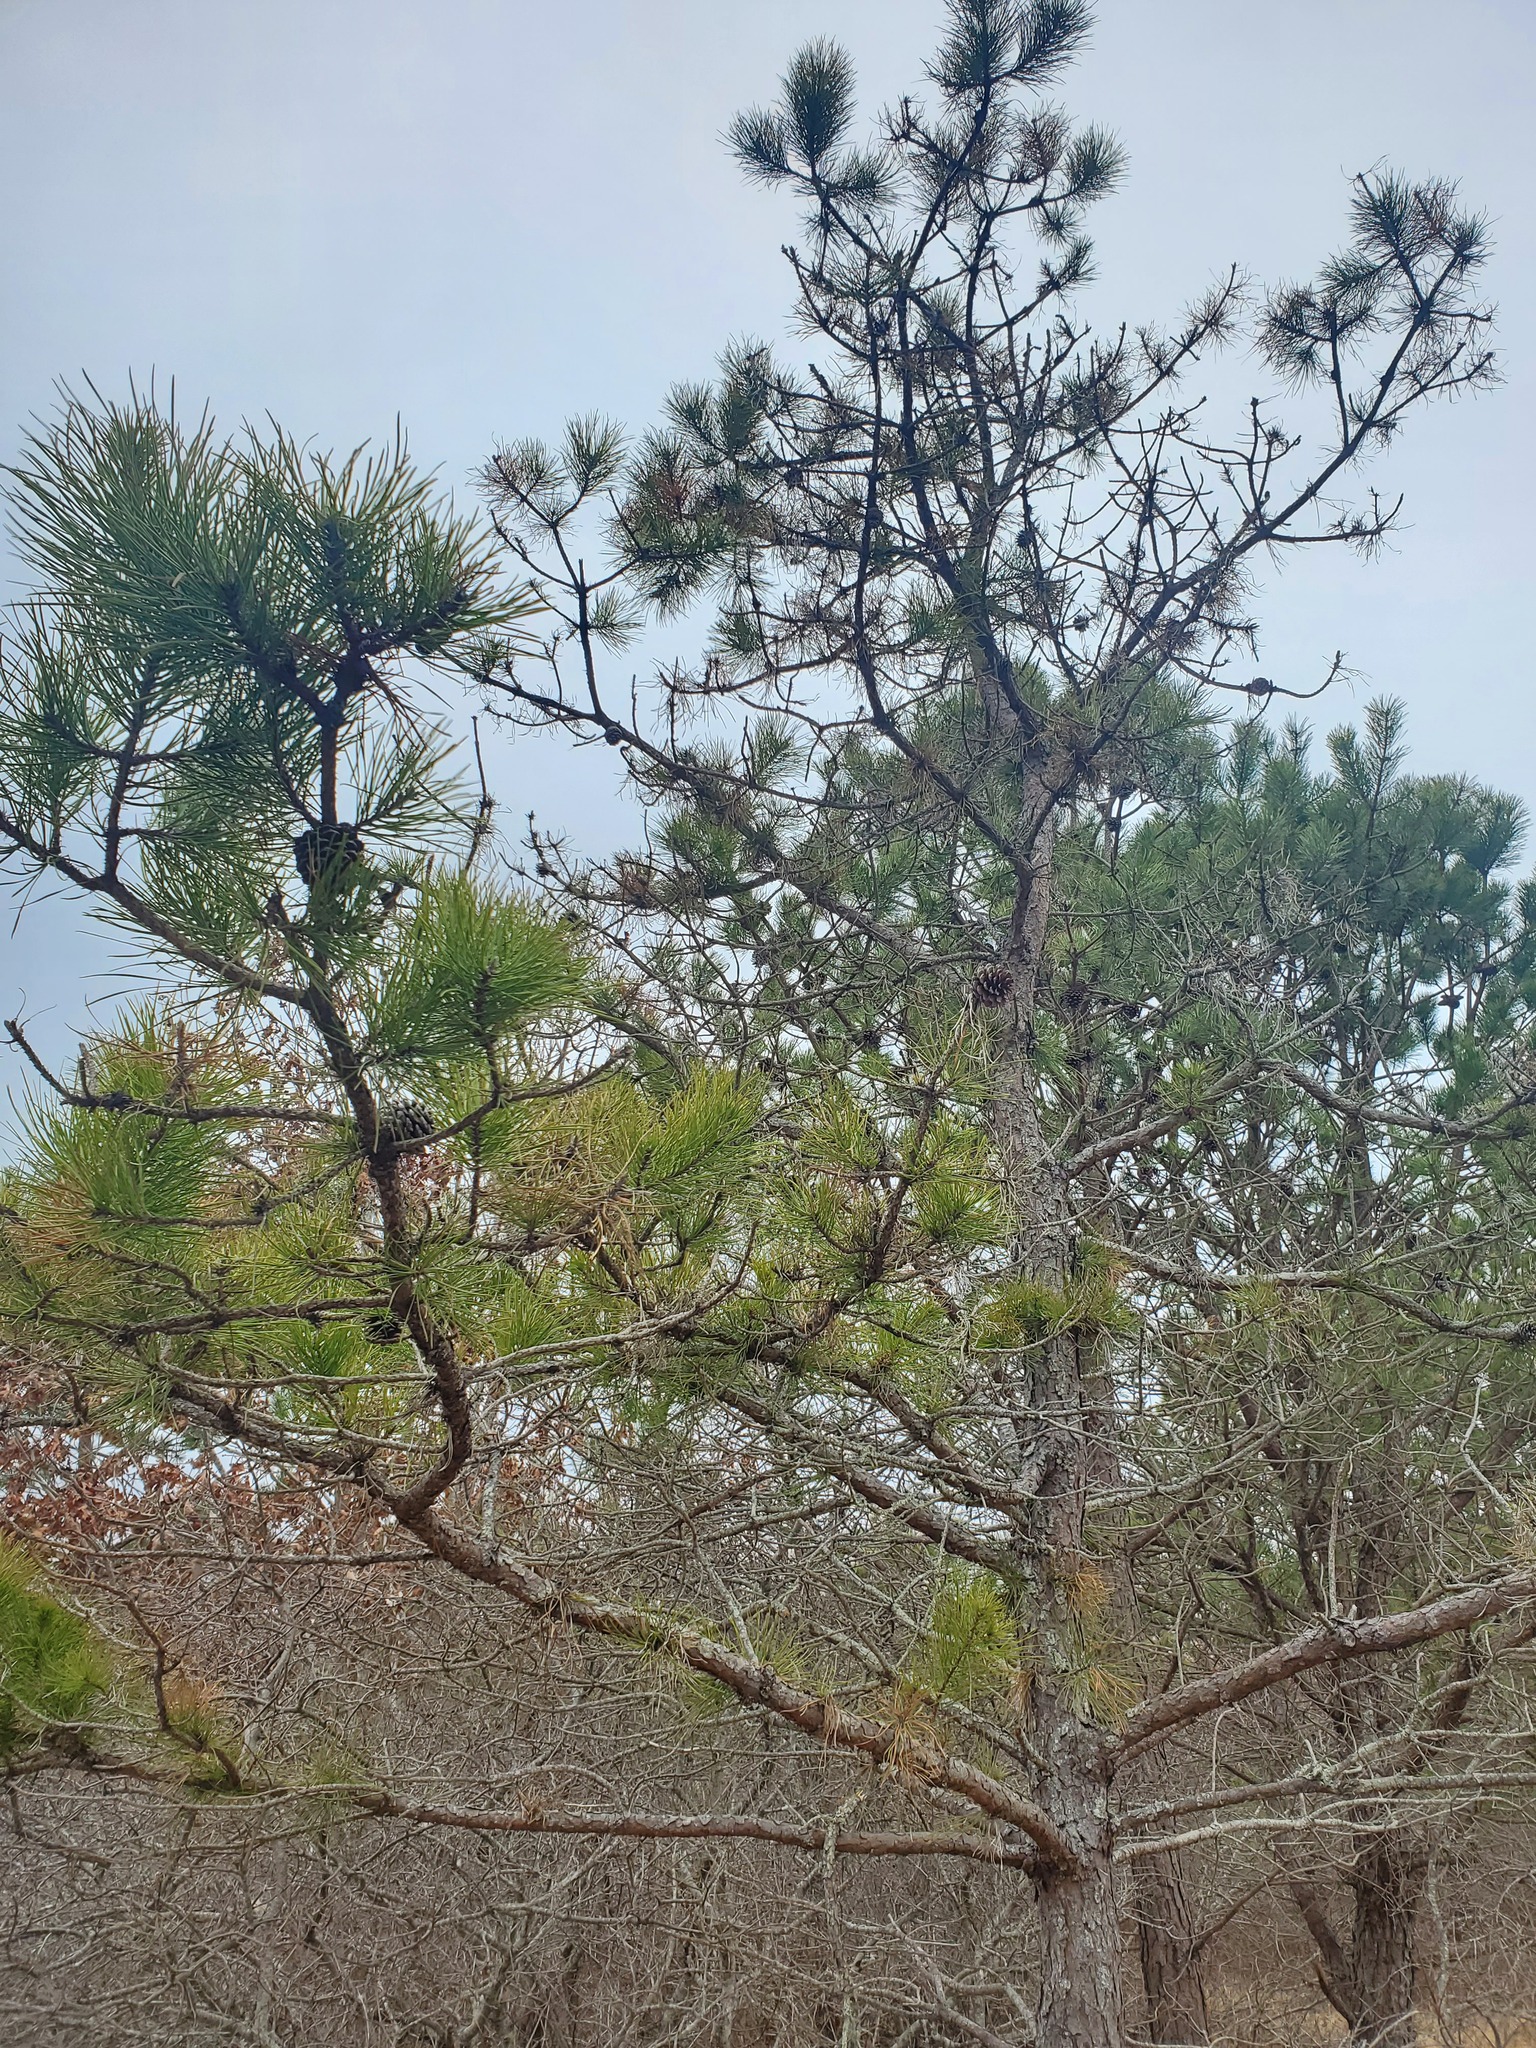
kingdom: Plantae
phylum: Tracheophyta
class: Pinopsida
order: Pinales
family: Pinaceae
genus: Pinus
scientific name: Pinus rigida
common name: Pitch pine
